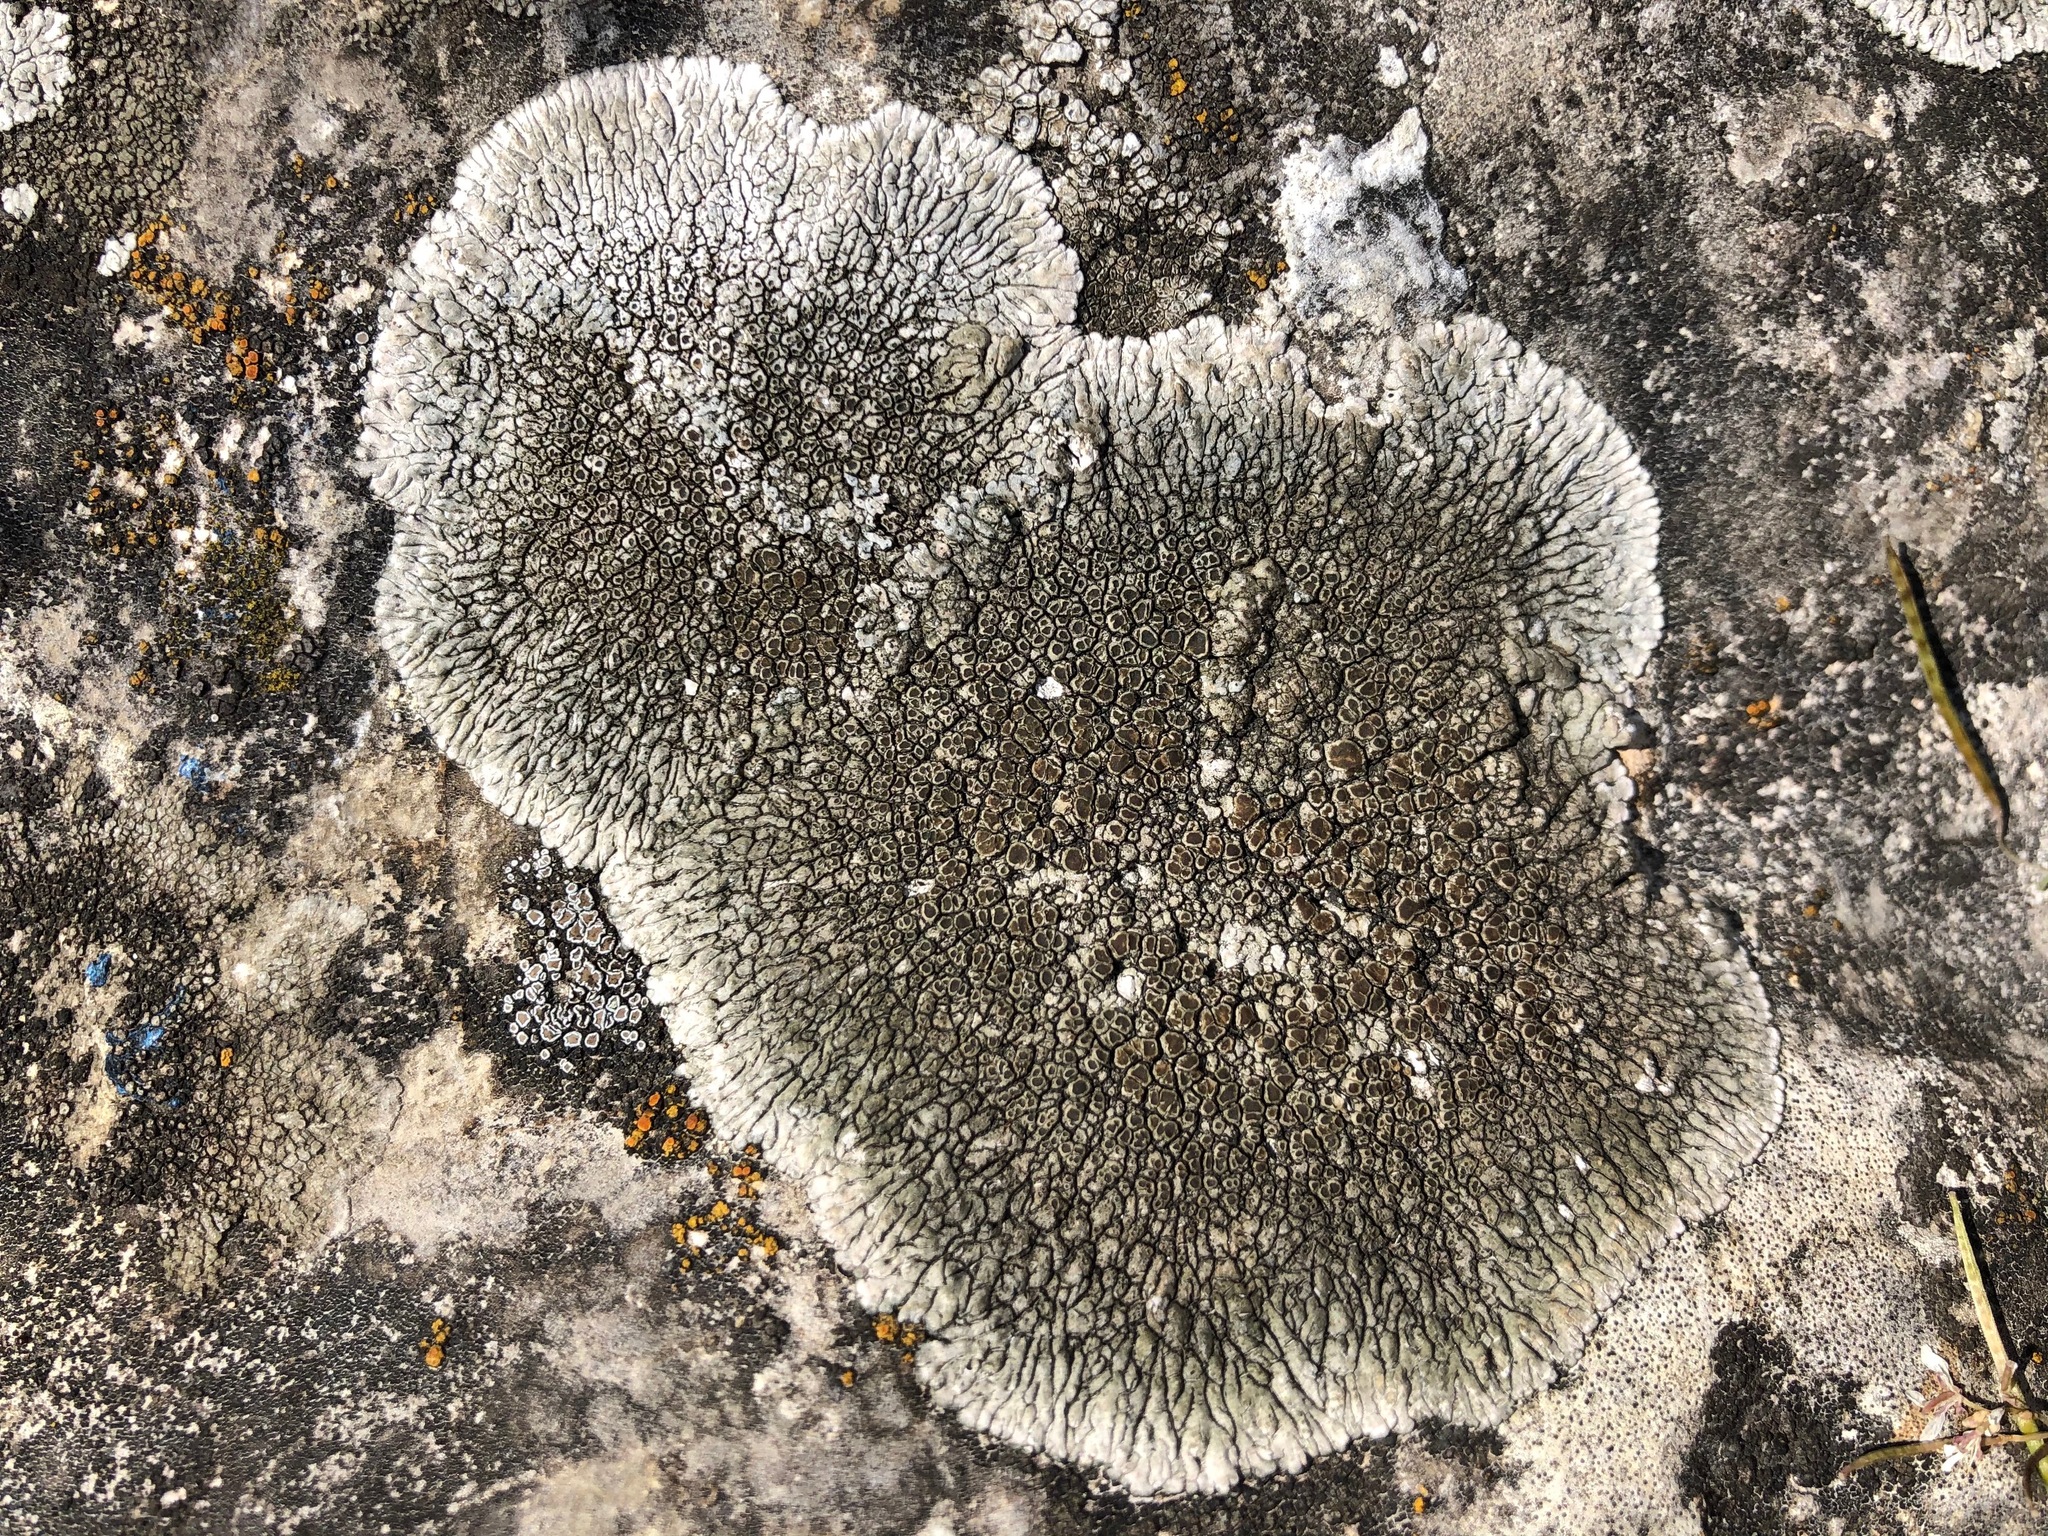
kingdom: Fungi
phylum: Ascomycota
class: Lecanoromycetes
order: Pertusariales
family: Megasporaceae
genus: Lobothallia
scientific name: Lobothallia radiosa
